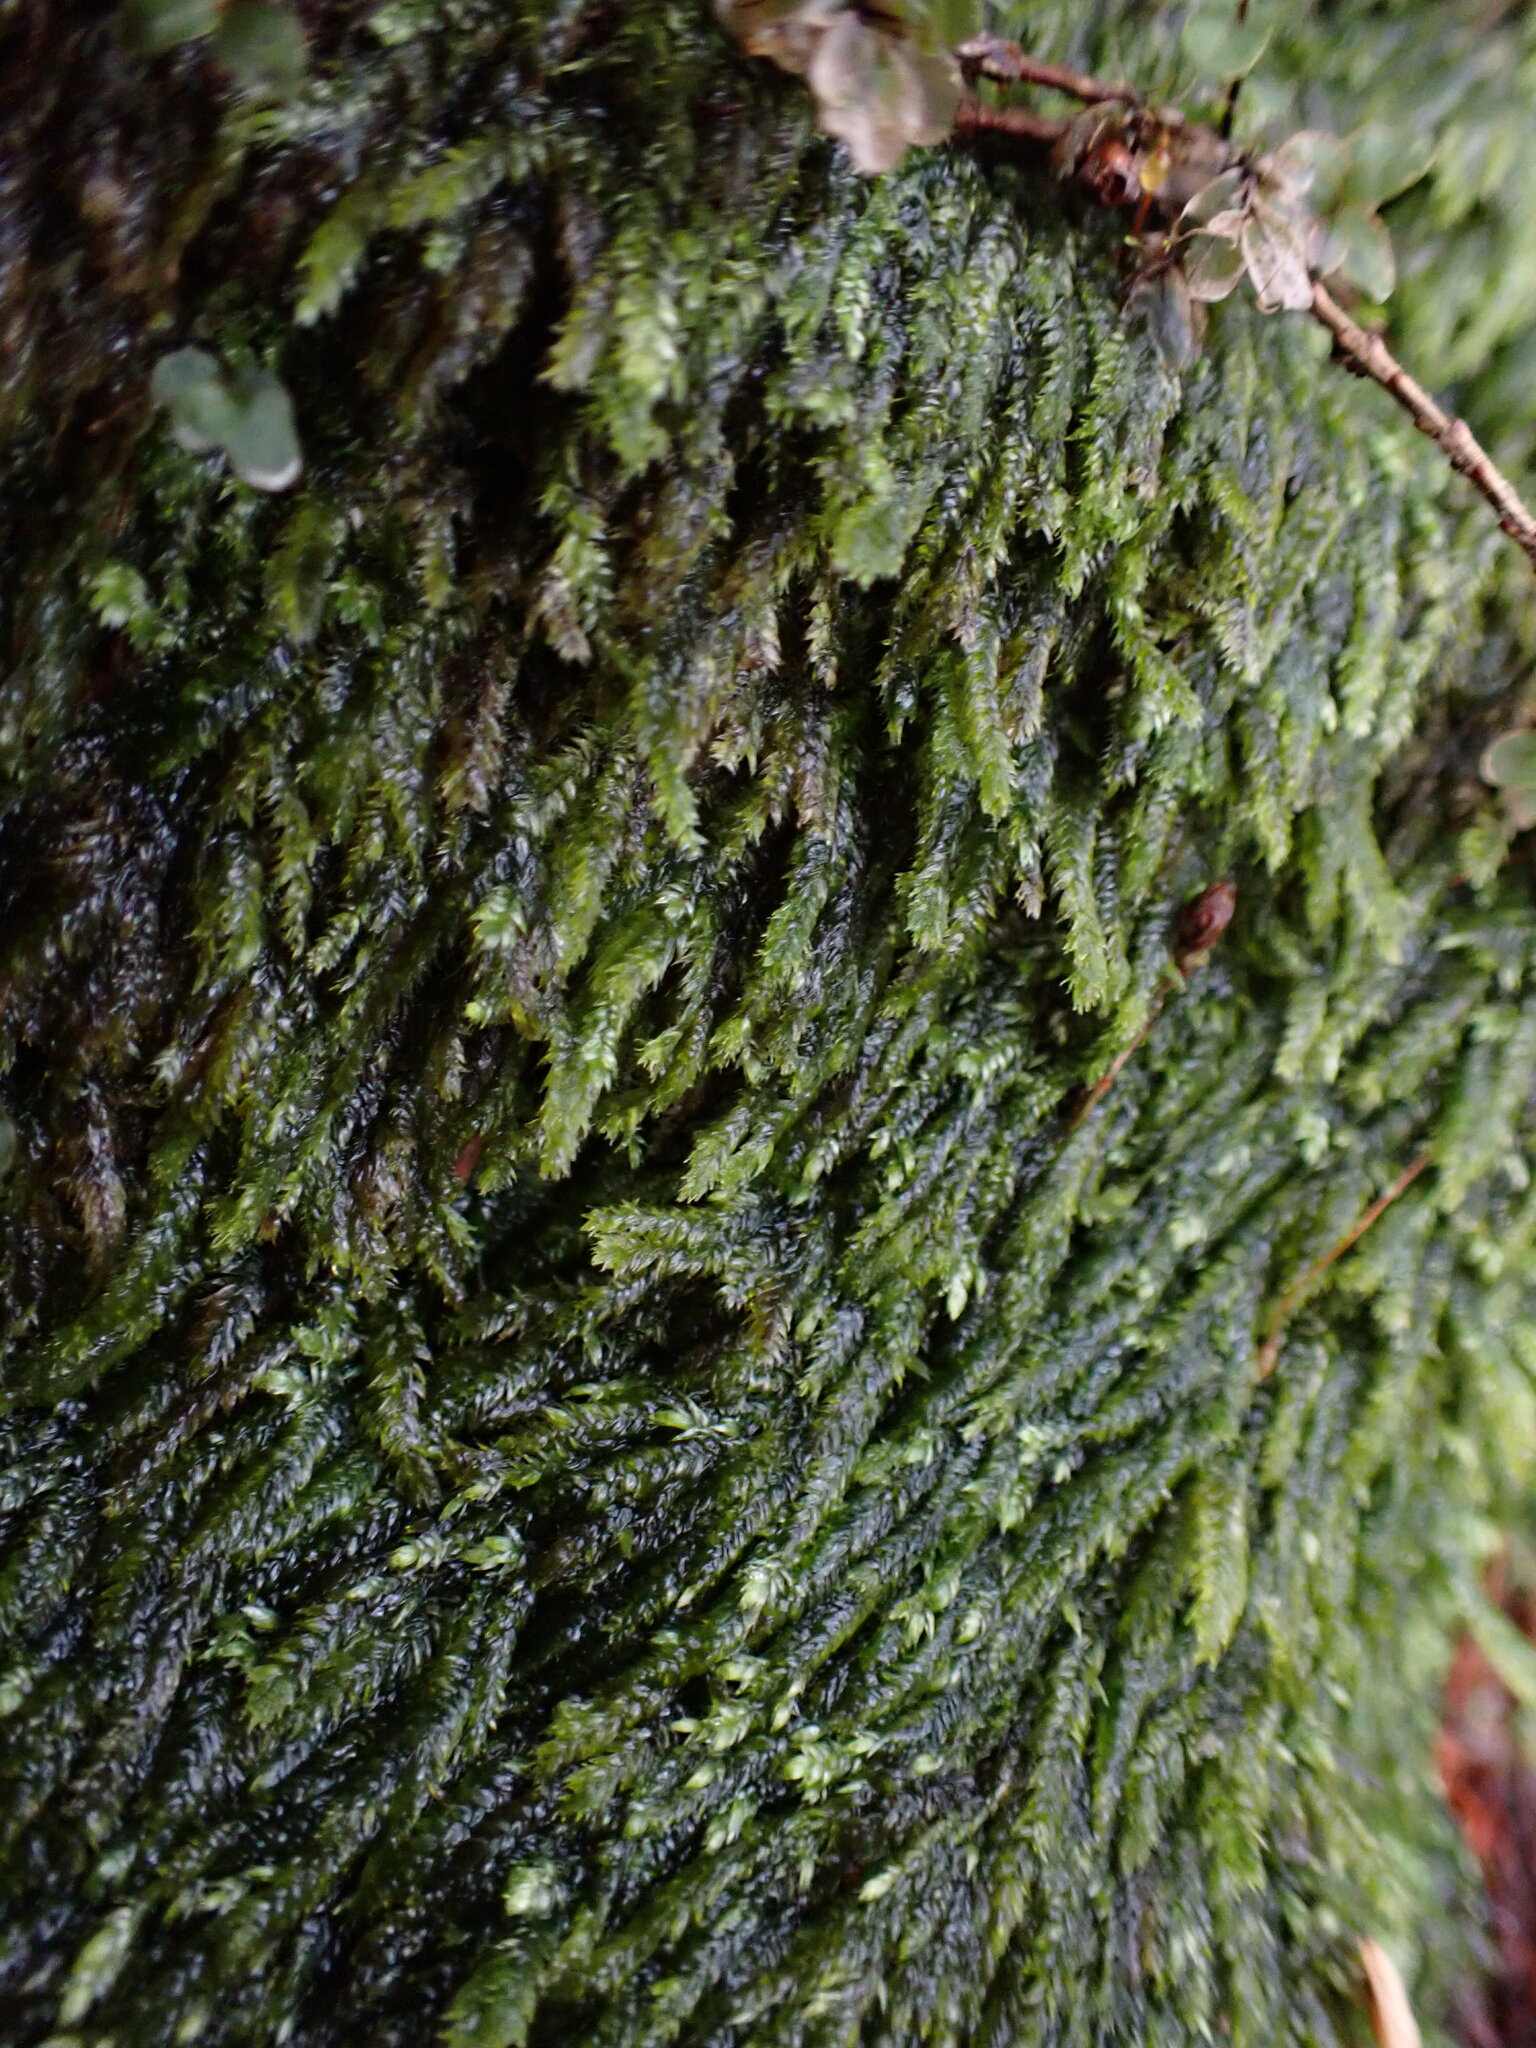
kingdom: Plantae
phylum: Bryophyta
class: Bryopsida
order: Hypnales
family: Plagiotheciaceae
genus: Pseudotaxiphyllum
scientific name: Pseudotaxiphyllum elegans
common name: Elegant silk moss
